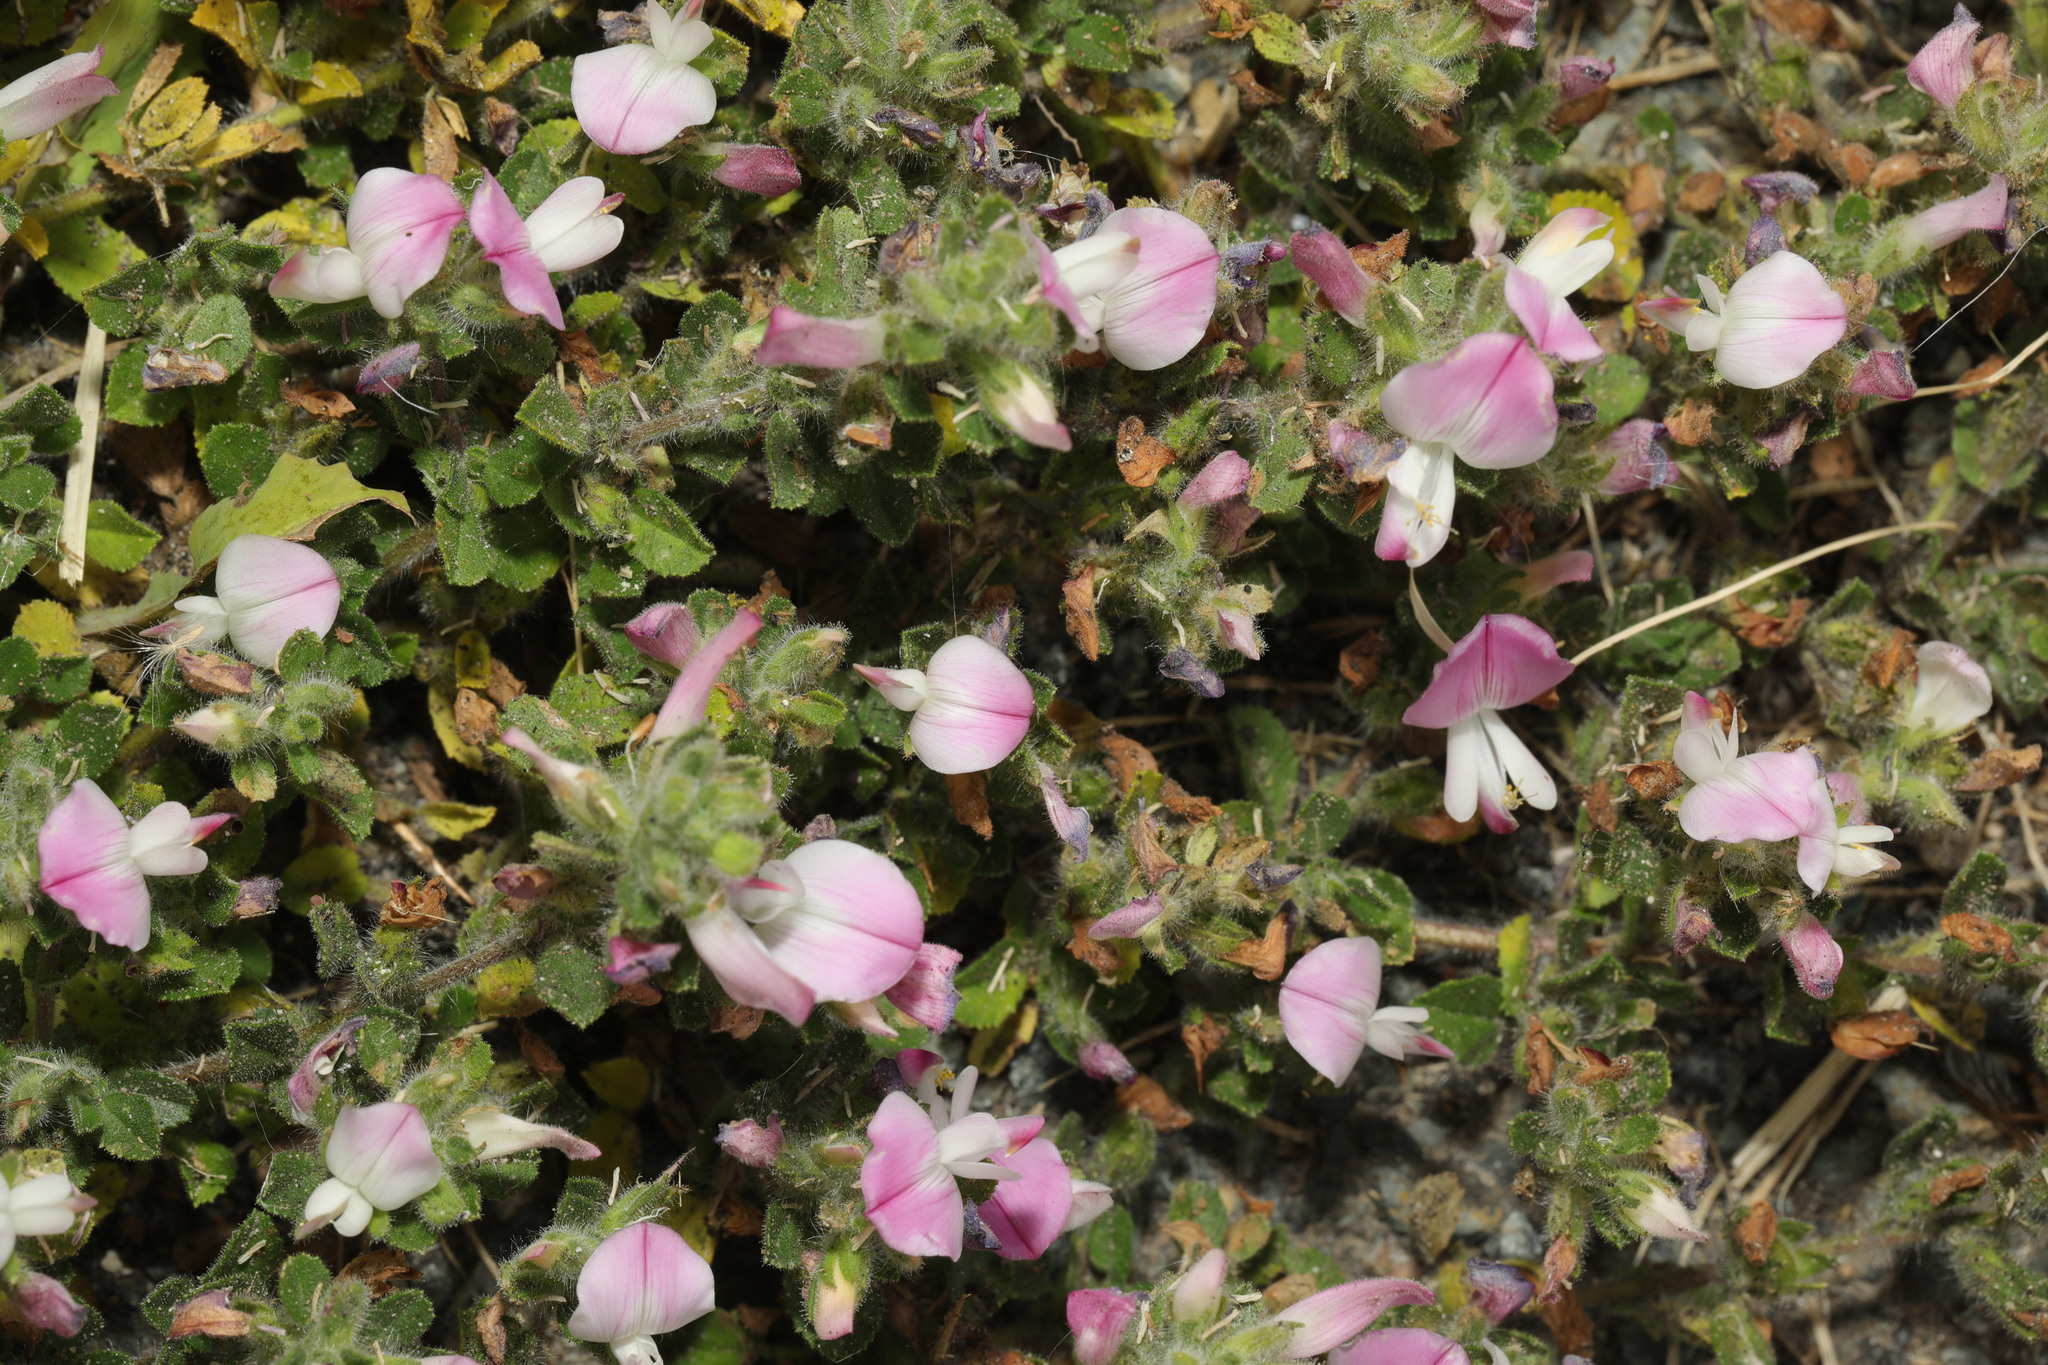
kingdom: Plantae
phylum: Tracheophyta
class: Magnoliopsida
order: Fabales
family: Fabaceae
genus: Ononis
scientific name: Ononis spinosa
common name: Spiny restharrow
